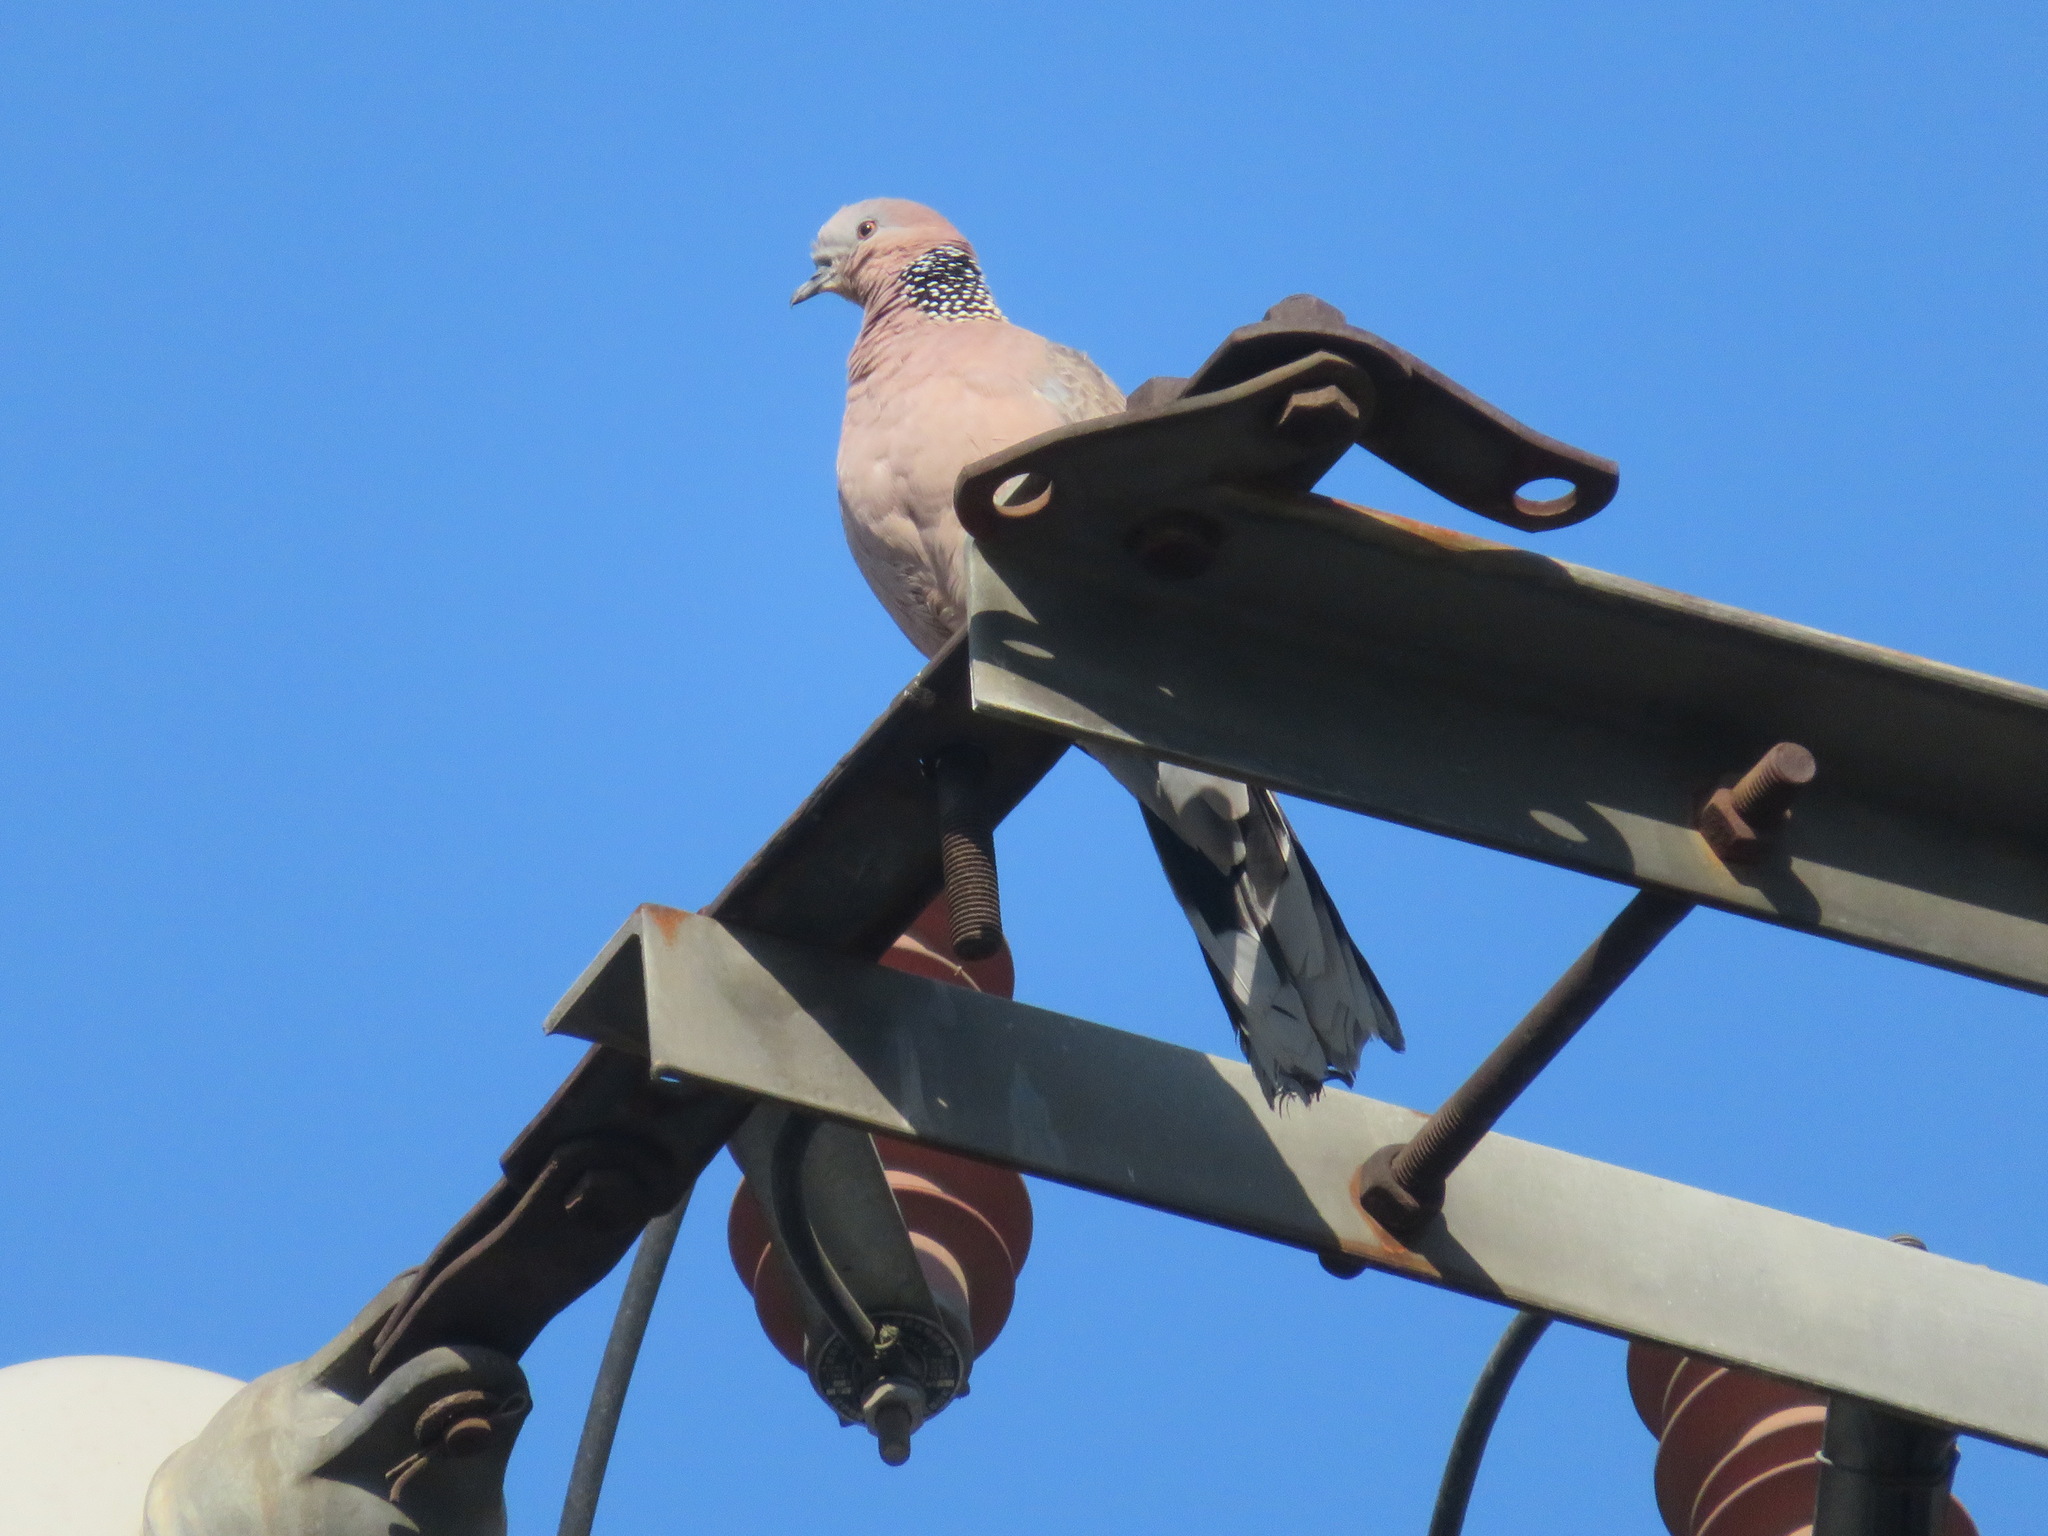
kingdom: Animalia
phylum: Chordata
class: Aves
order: Columbiformes
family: Columbidae
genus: Spilopelia
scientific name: Spilopelia chinensis
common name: Spotted dove
